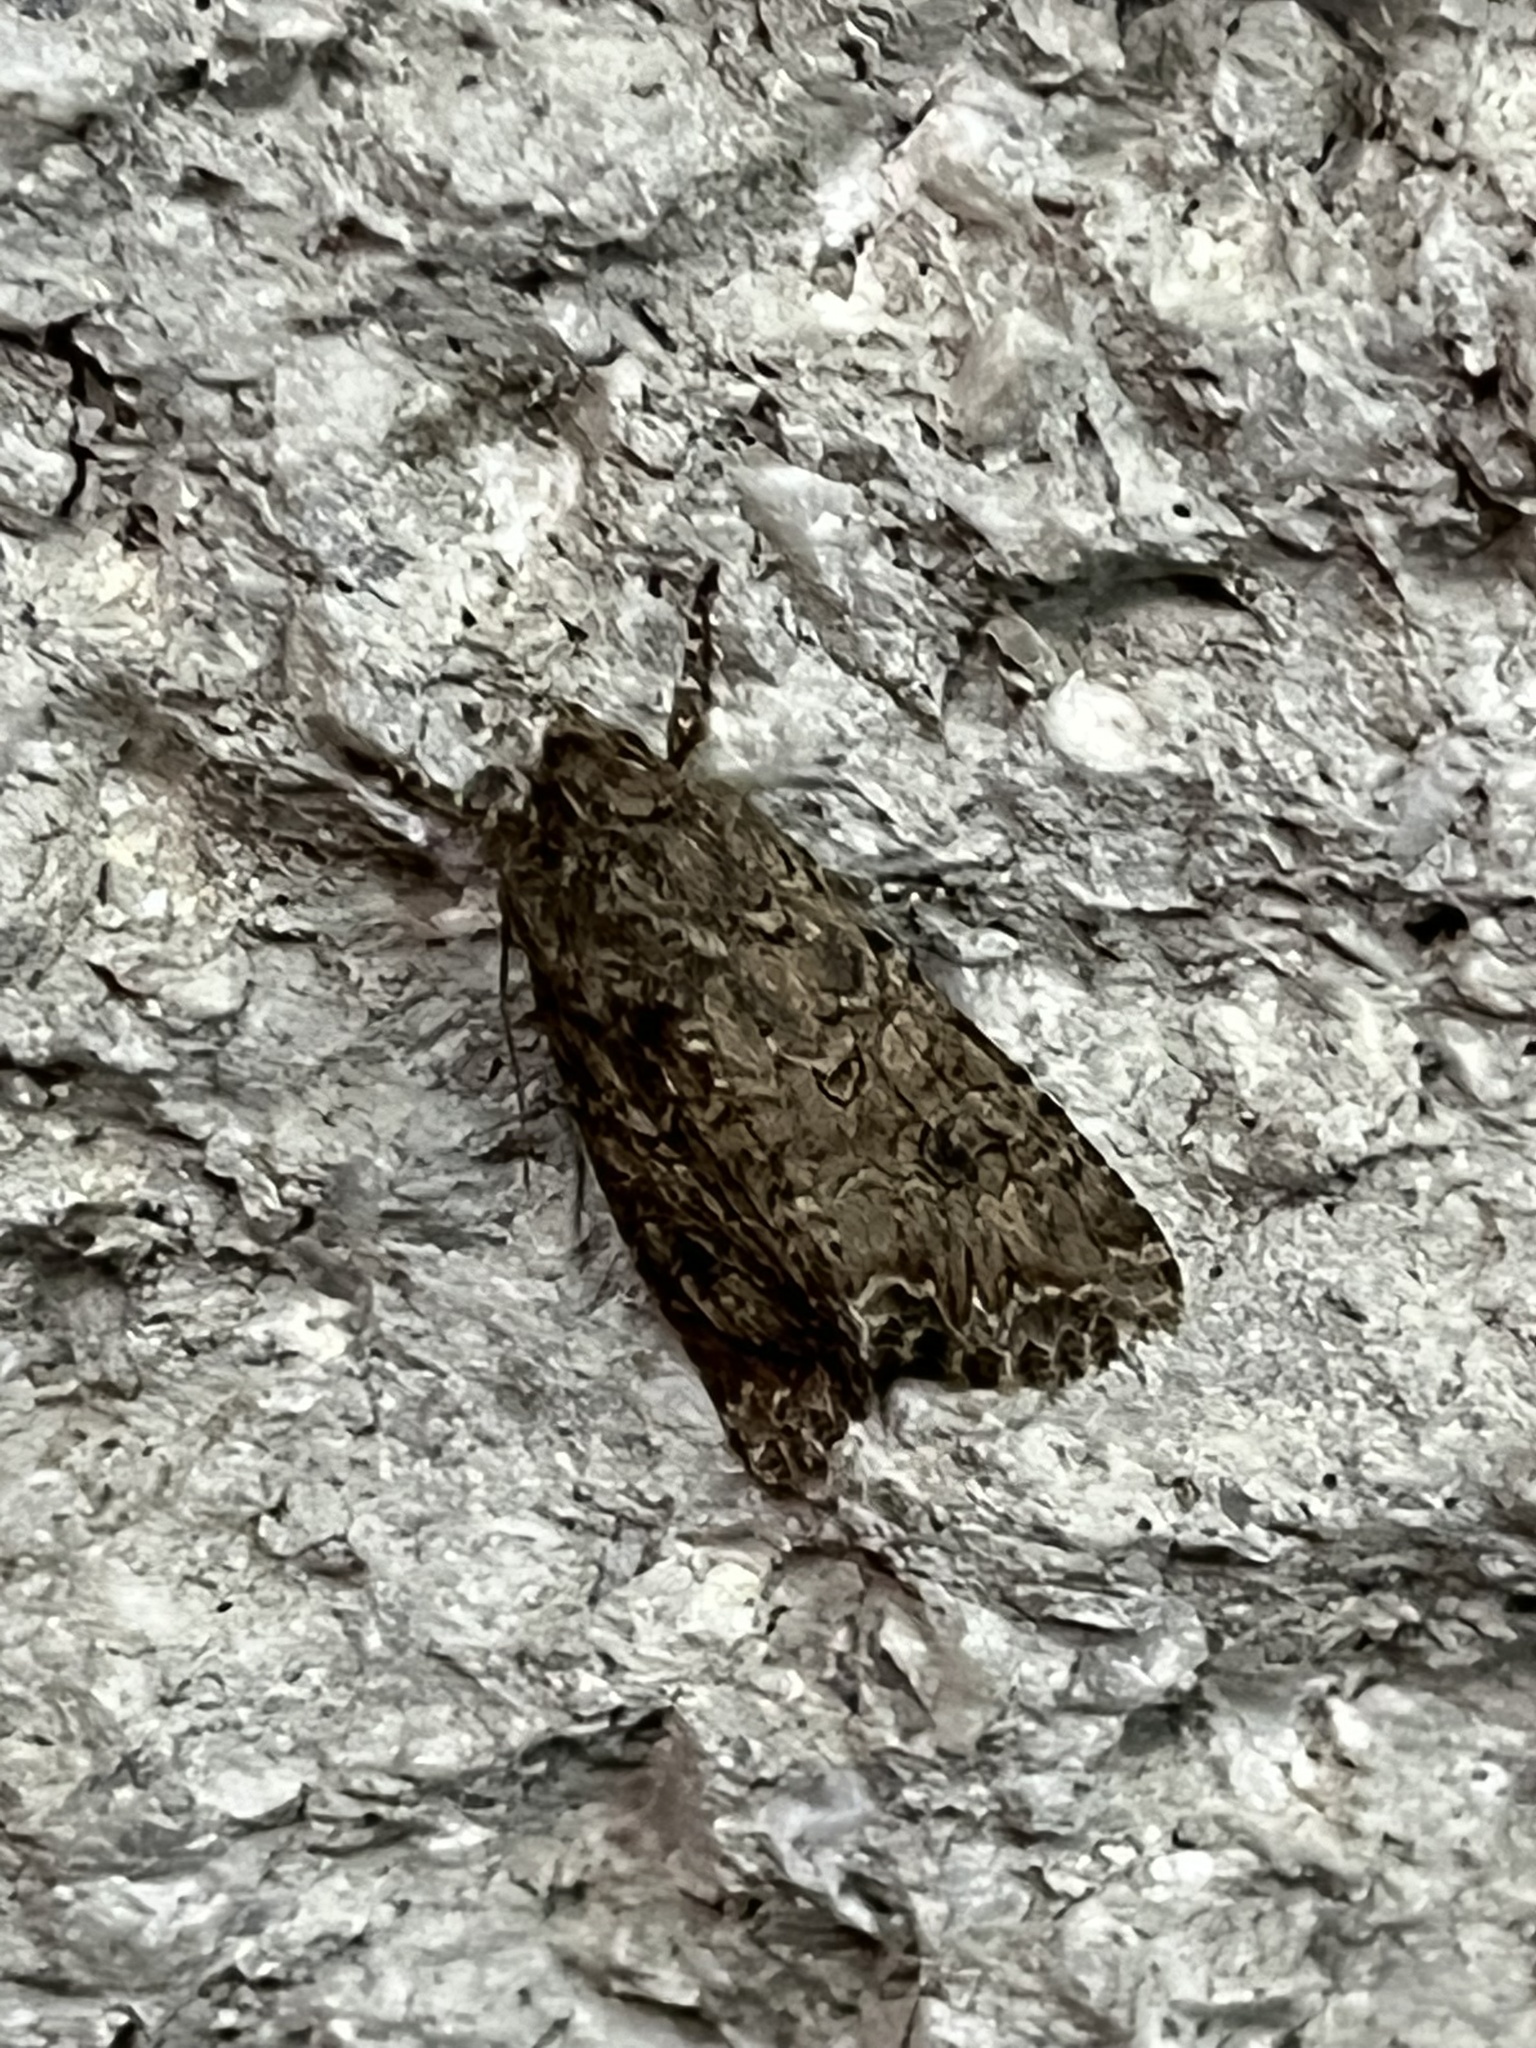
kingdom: Animalia
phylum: Arthropoda
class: Insecta
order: Lepidoptera
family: Noctuidae
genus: Anarta
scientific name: Anarta trifolii
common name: Clover cutworm moth
